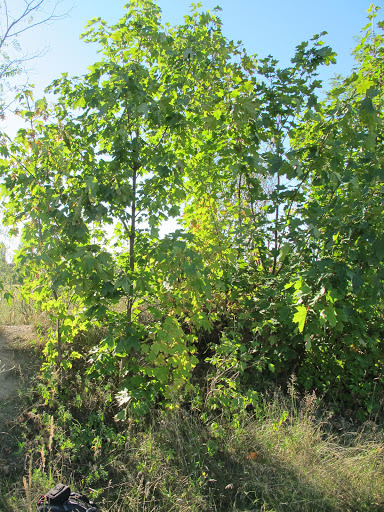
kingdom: Plantae
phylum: Tracheophyta
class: Magnoliopsida
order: Sapindales
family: Sapindaceae
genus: Acer
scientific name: Acer pseudoplatanus
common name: Sycamore
